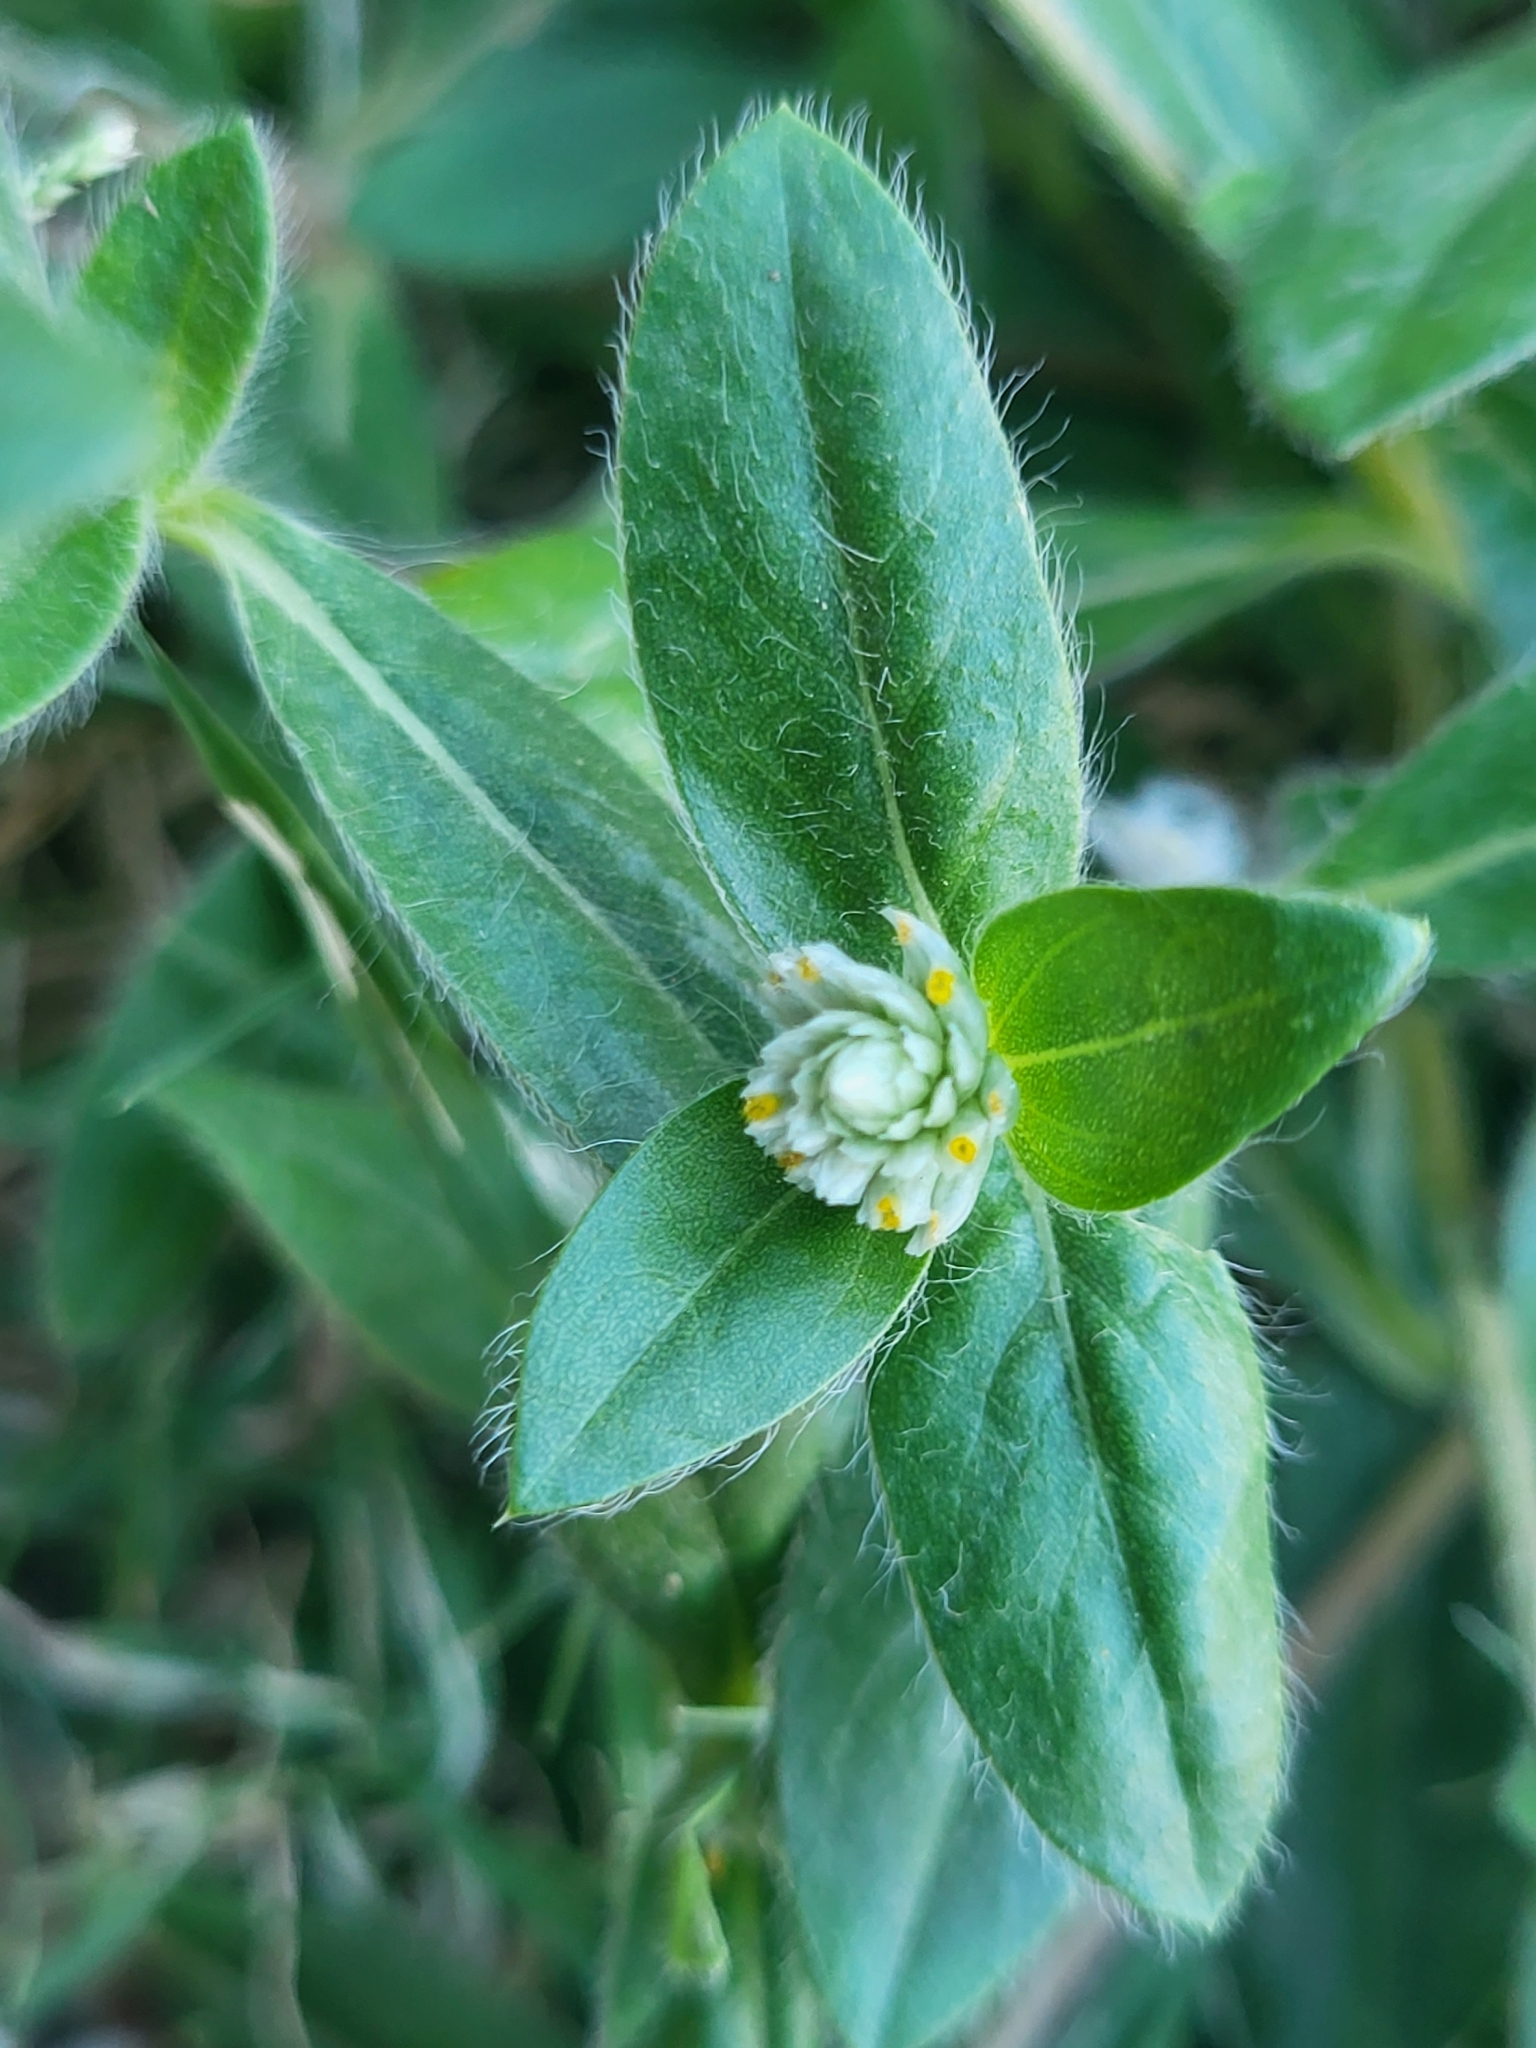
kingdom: Plantae
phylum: Tracheophyta
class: Magnoliopsida
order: Caryophyllales
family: Amaranthaceae
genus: Gomphrena
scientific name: Gomphrena celosioides
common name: Gomphrena-weed
